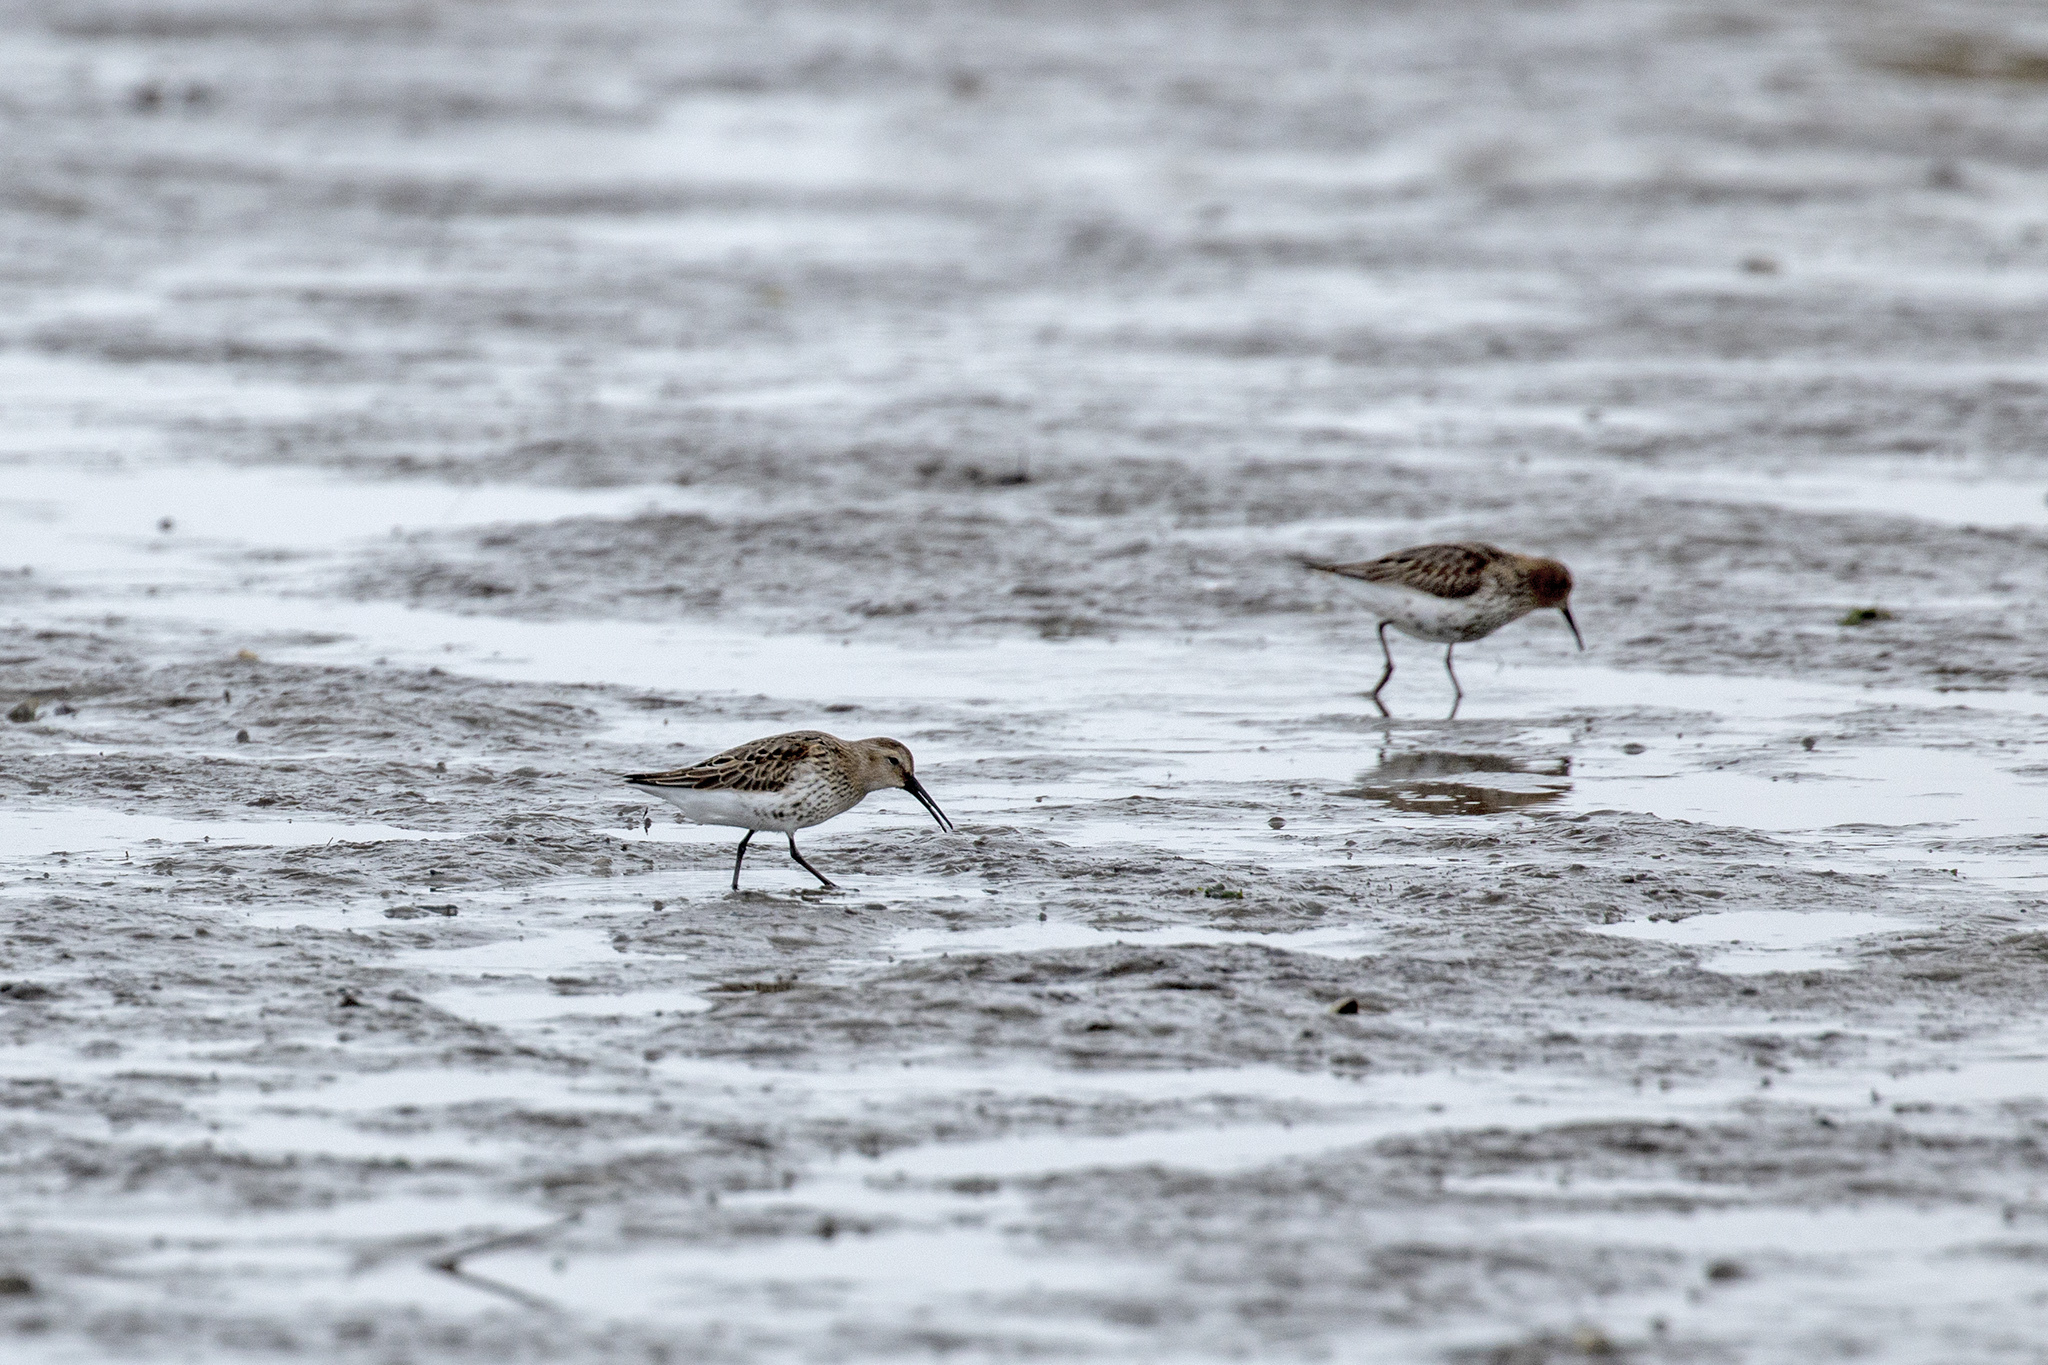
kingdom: Animalia
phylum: Chordata
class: Aves
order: Charadriiformes
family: Scolopacidae
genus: Calidris
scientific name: Calidris alpina
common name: Dunlin
